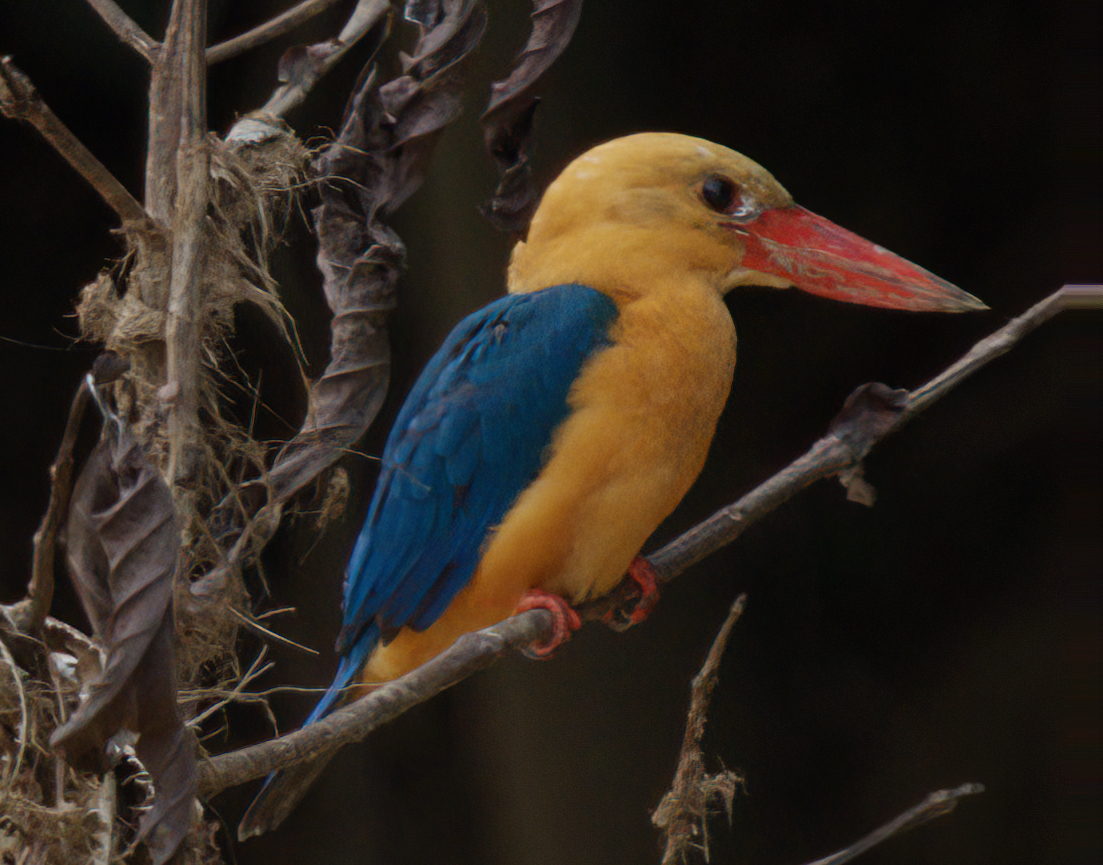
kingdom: Animalia
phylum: Chordata
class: Aves
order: Coraciiformes
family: Alcedinidae
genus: Pelargopsis
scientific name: Pelargopsis capensis
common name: Stork-billed kingfisher
